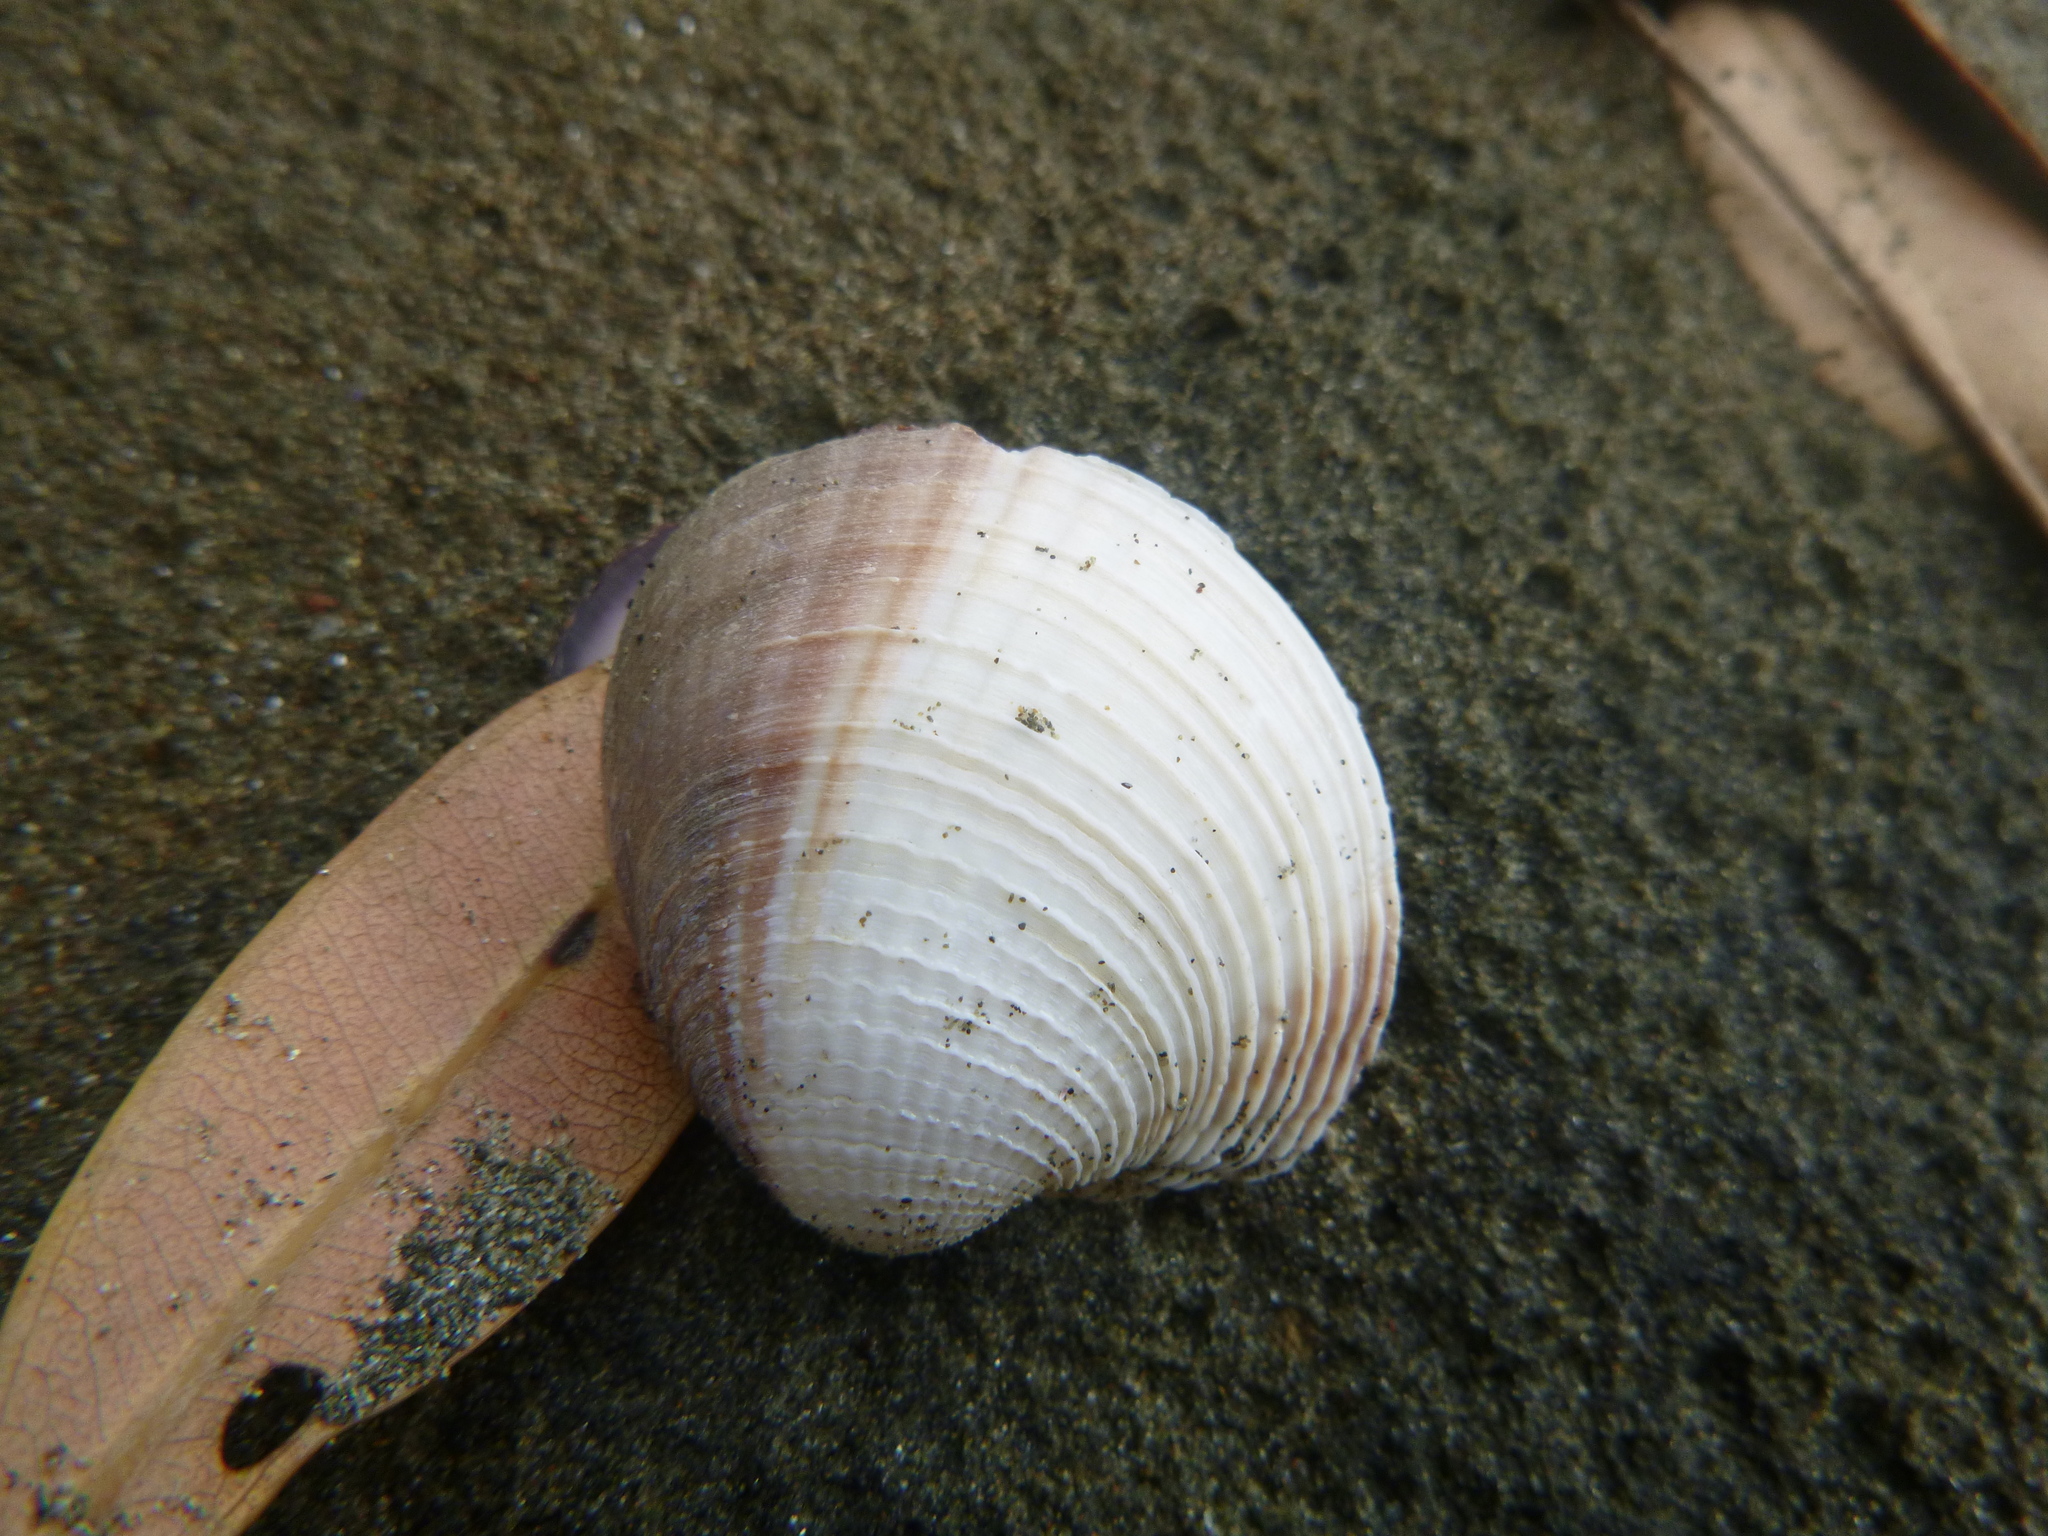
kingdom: Animalia
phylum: Mollusca
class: Bivalvia
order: Venerida
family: Veneridae
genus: Austrovenus
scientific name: Austrovenus stutchburyi
